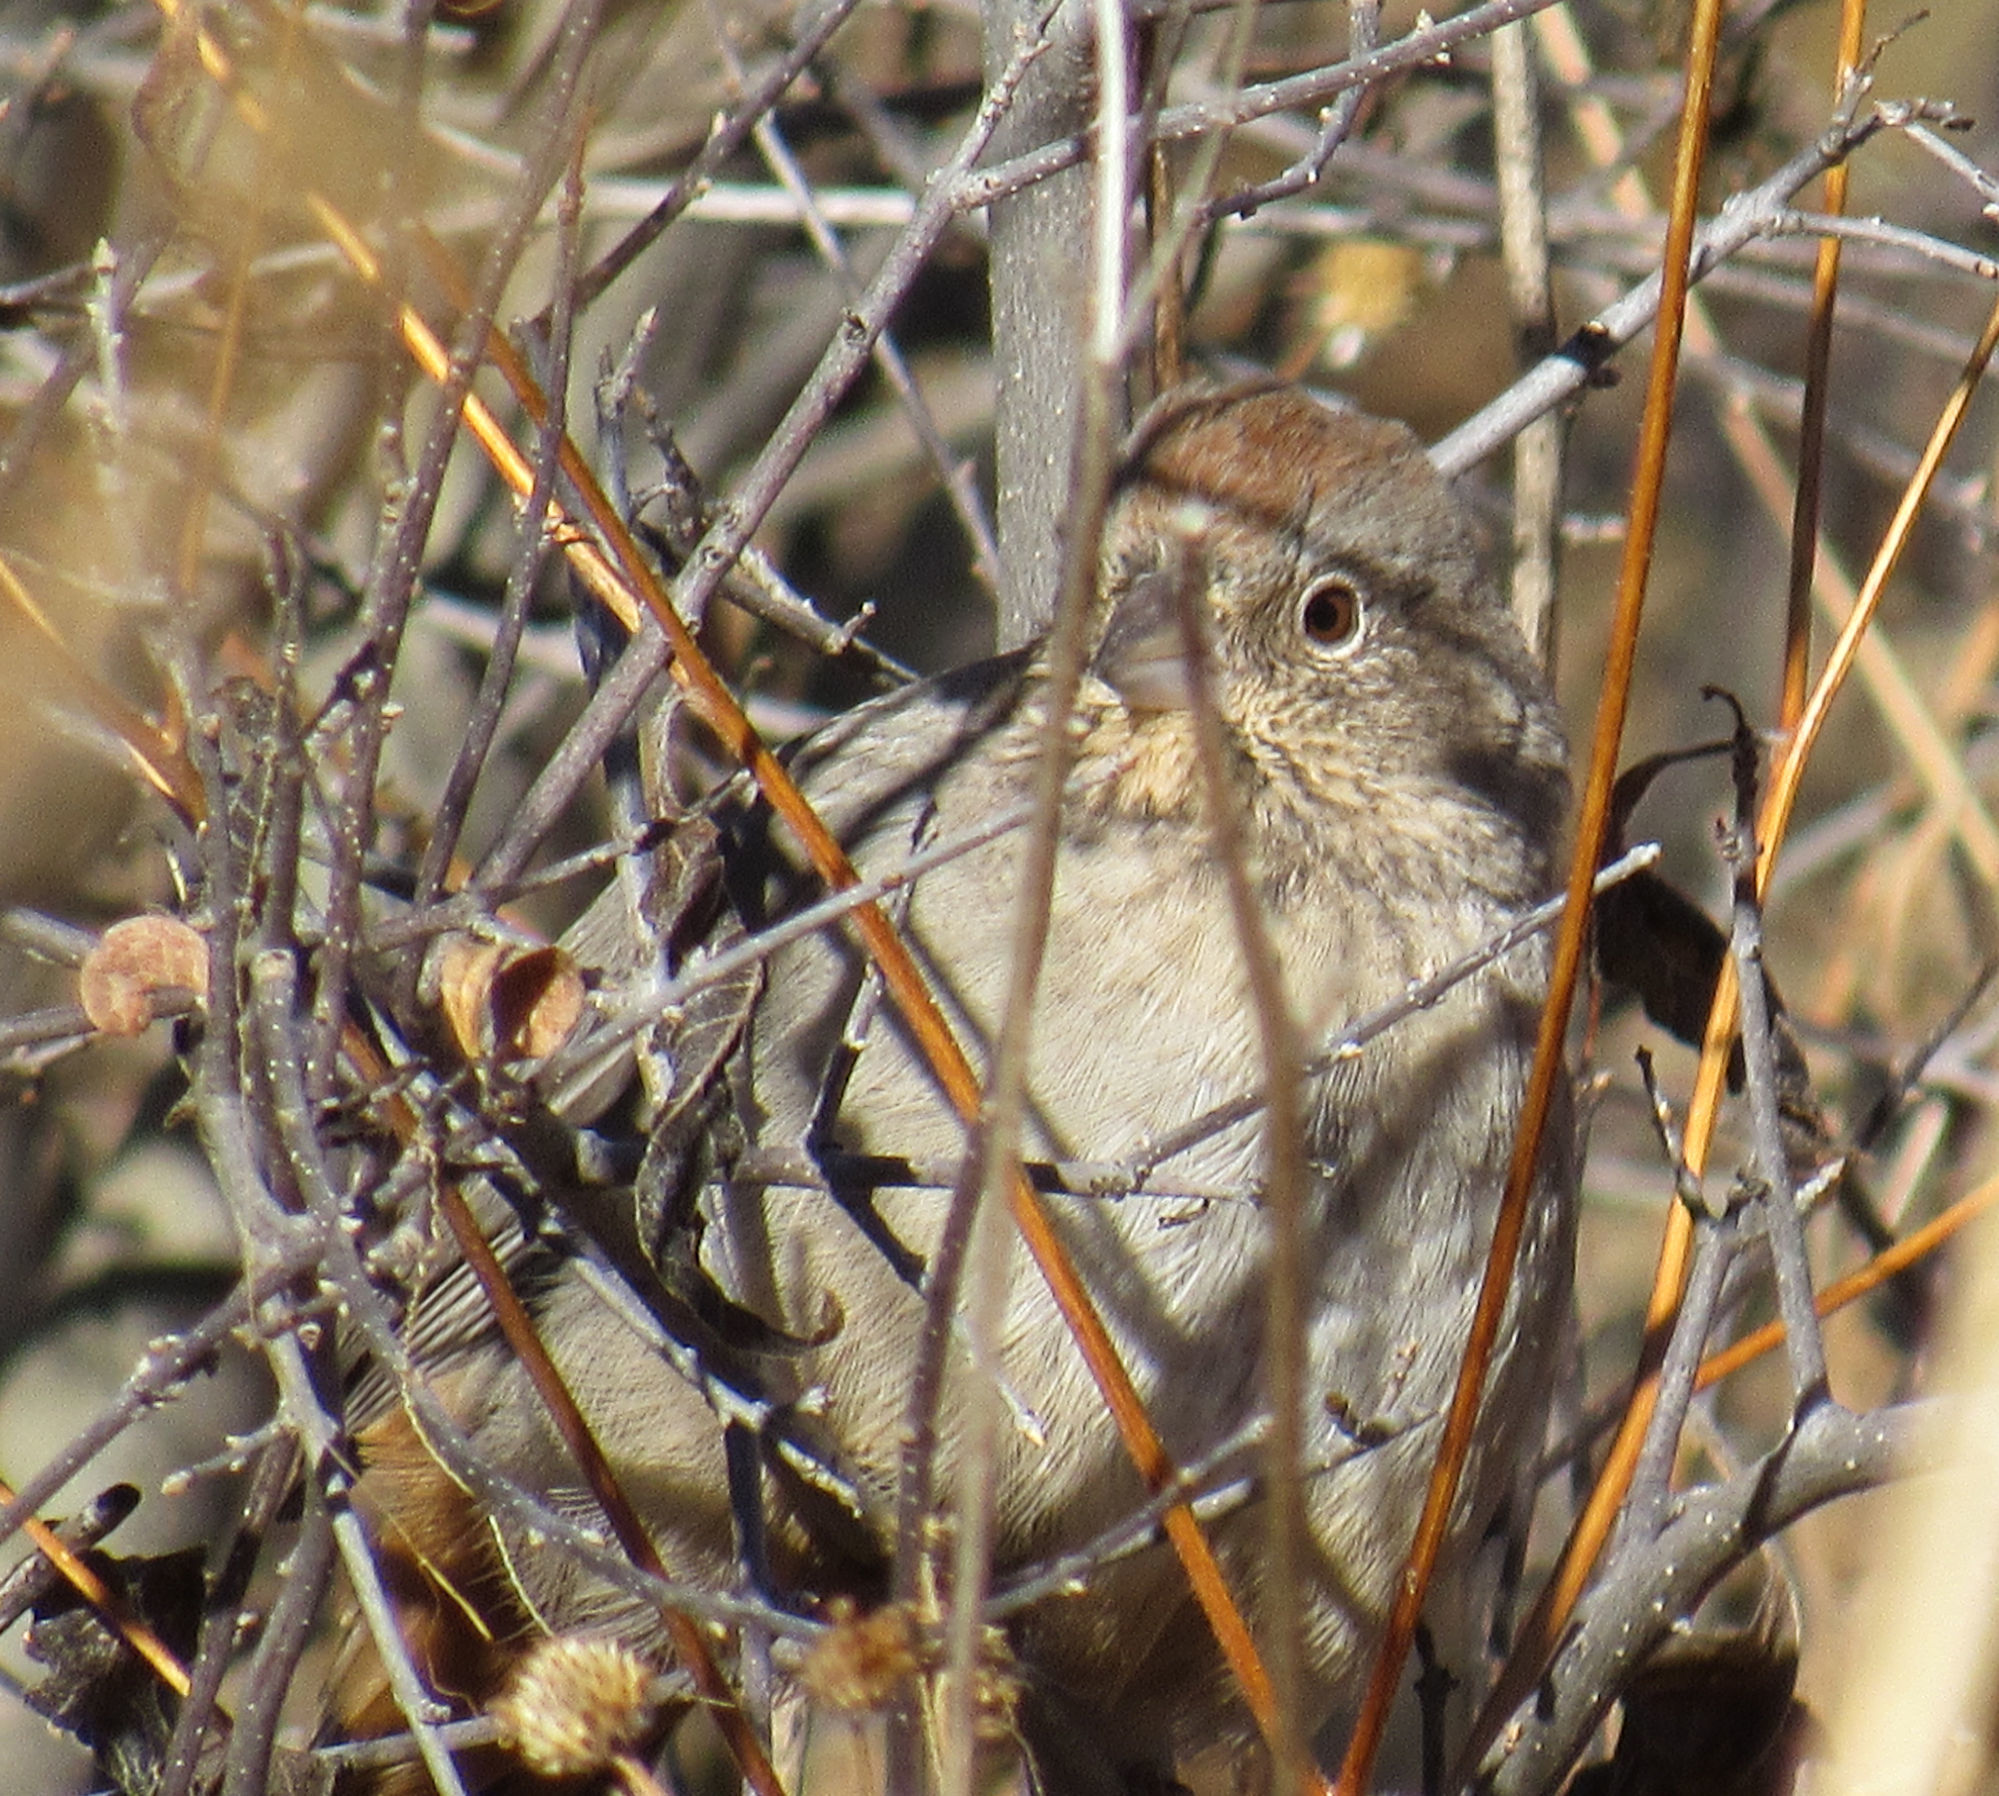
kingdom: Animalia
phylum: Chordata
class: Aves
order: Passeriformes
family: Passerellidae
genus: Melozone
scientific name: Melozone fusca
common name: Canyon towhee
